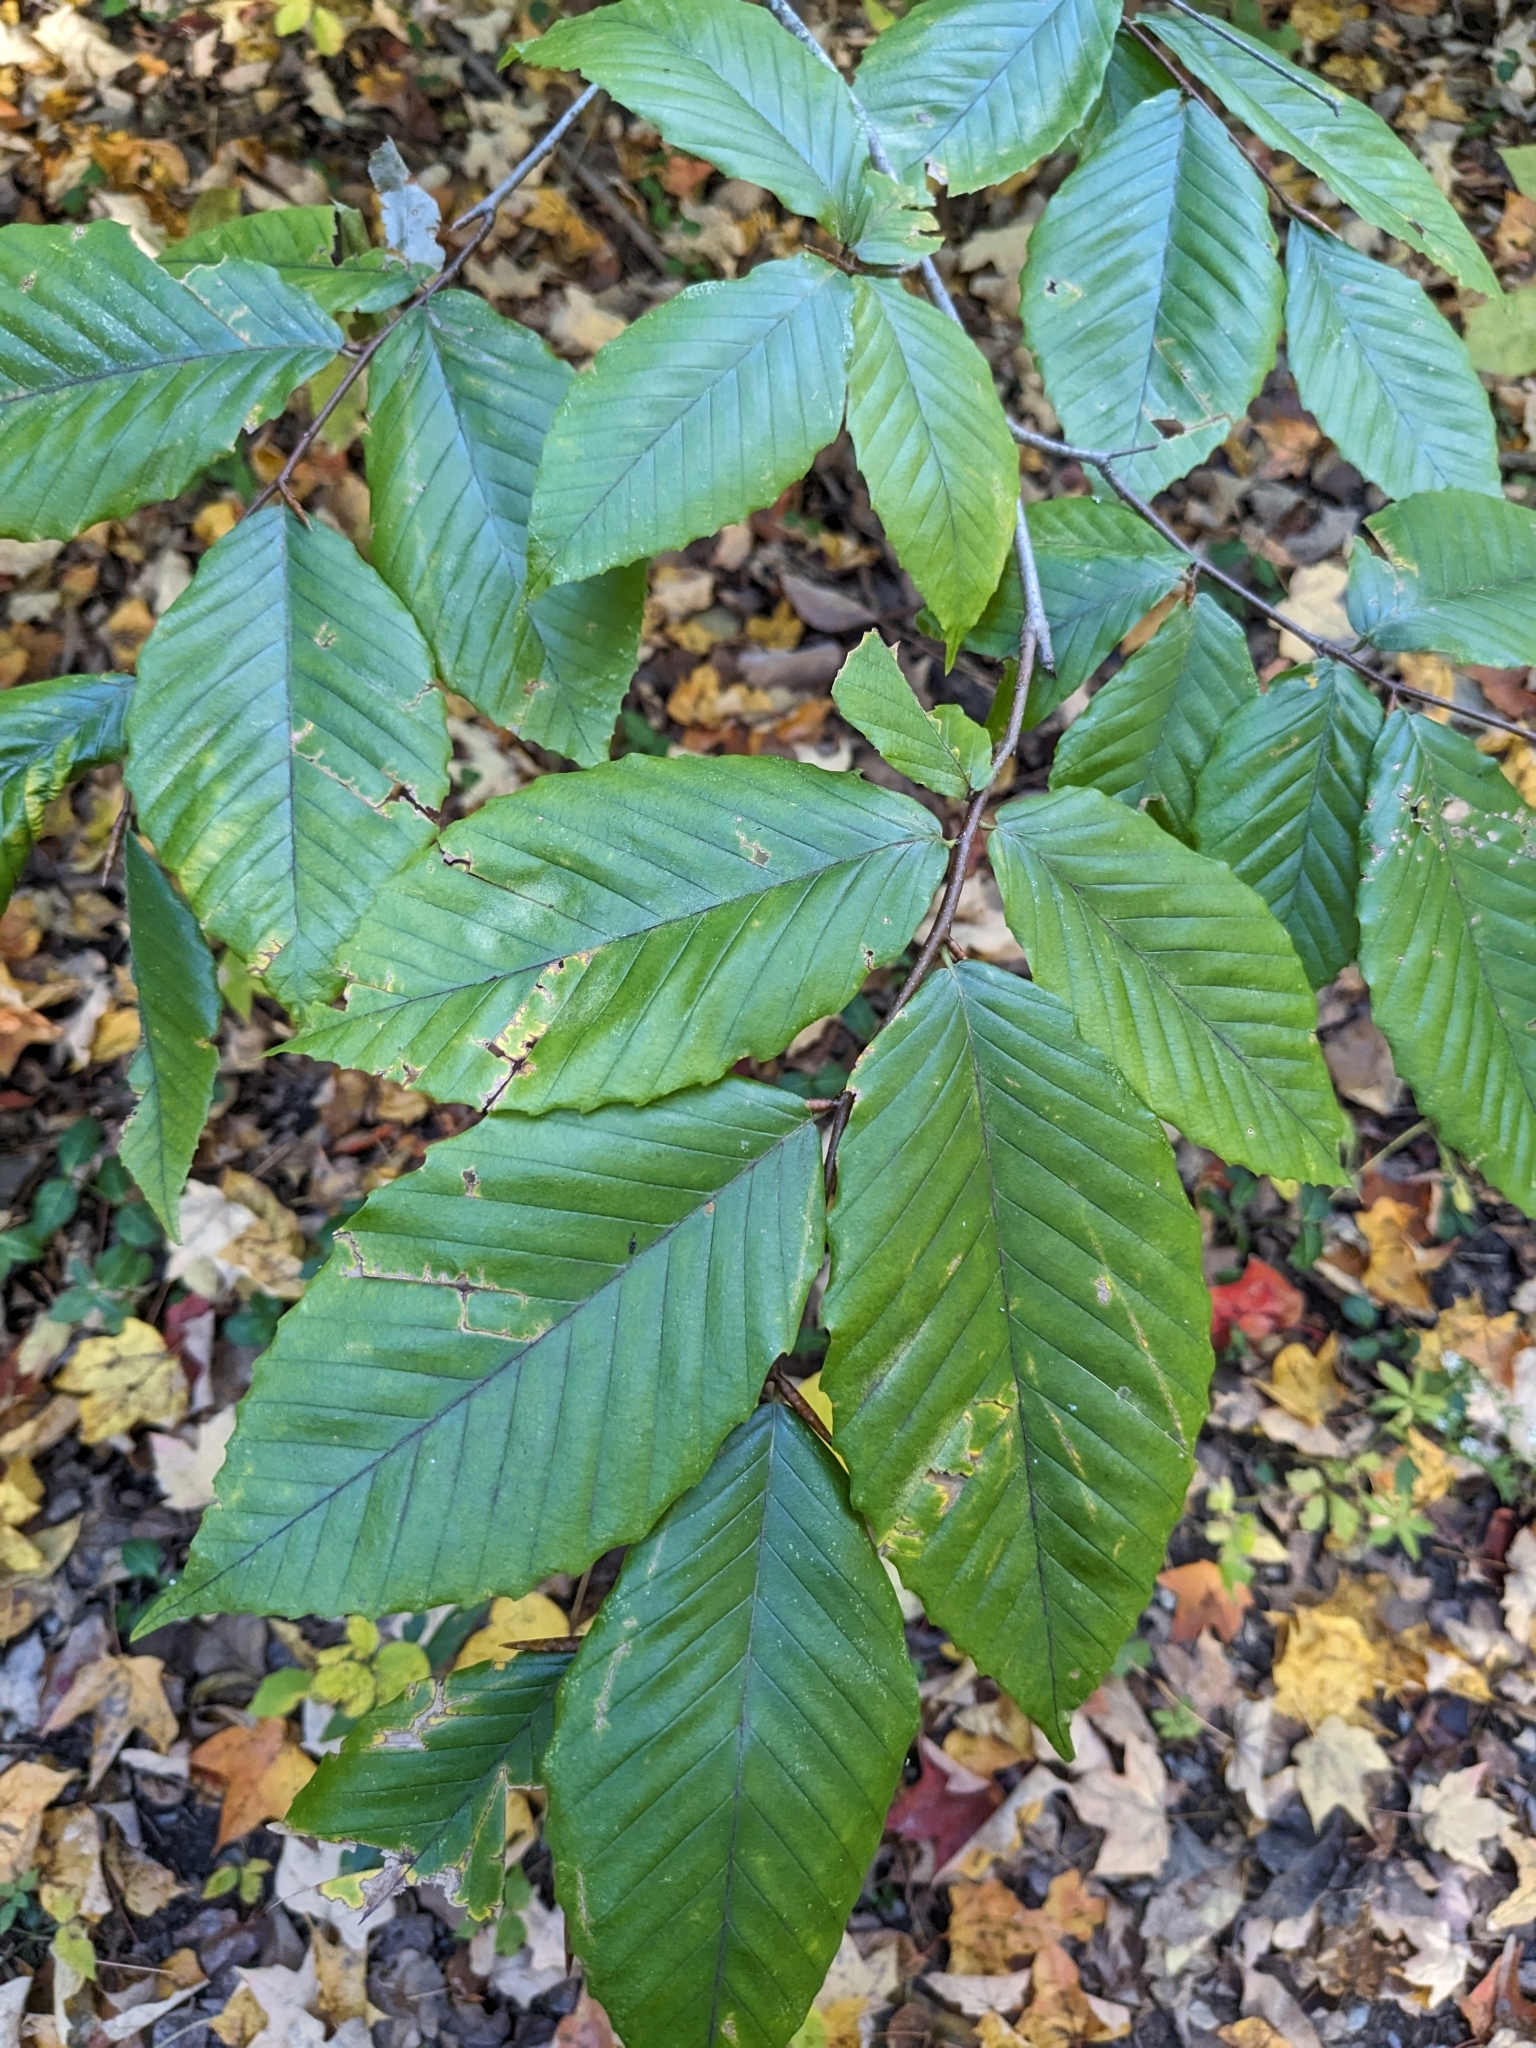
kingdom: Plantae
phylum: Tracheophyta
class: Magnoliopsida
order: Fagales
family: Fagaceae
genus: Fagus
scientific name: Fagus grandifolia
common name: American beech
